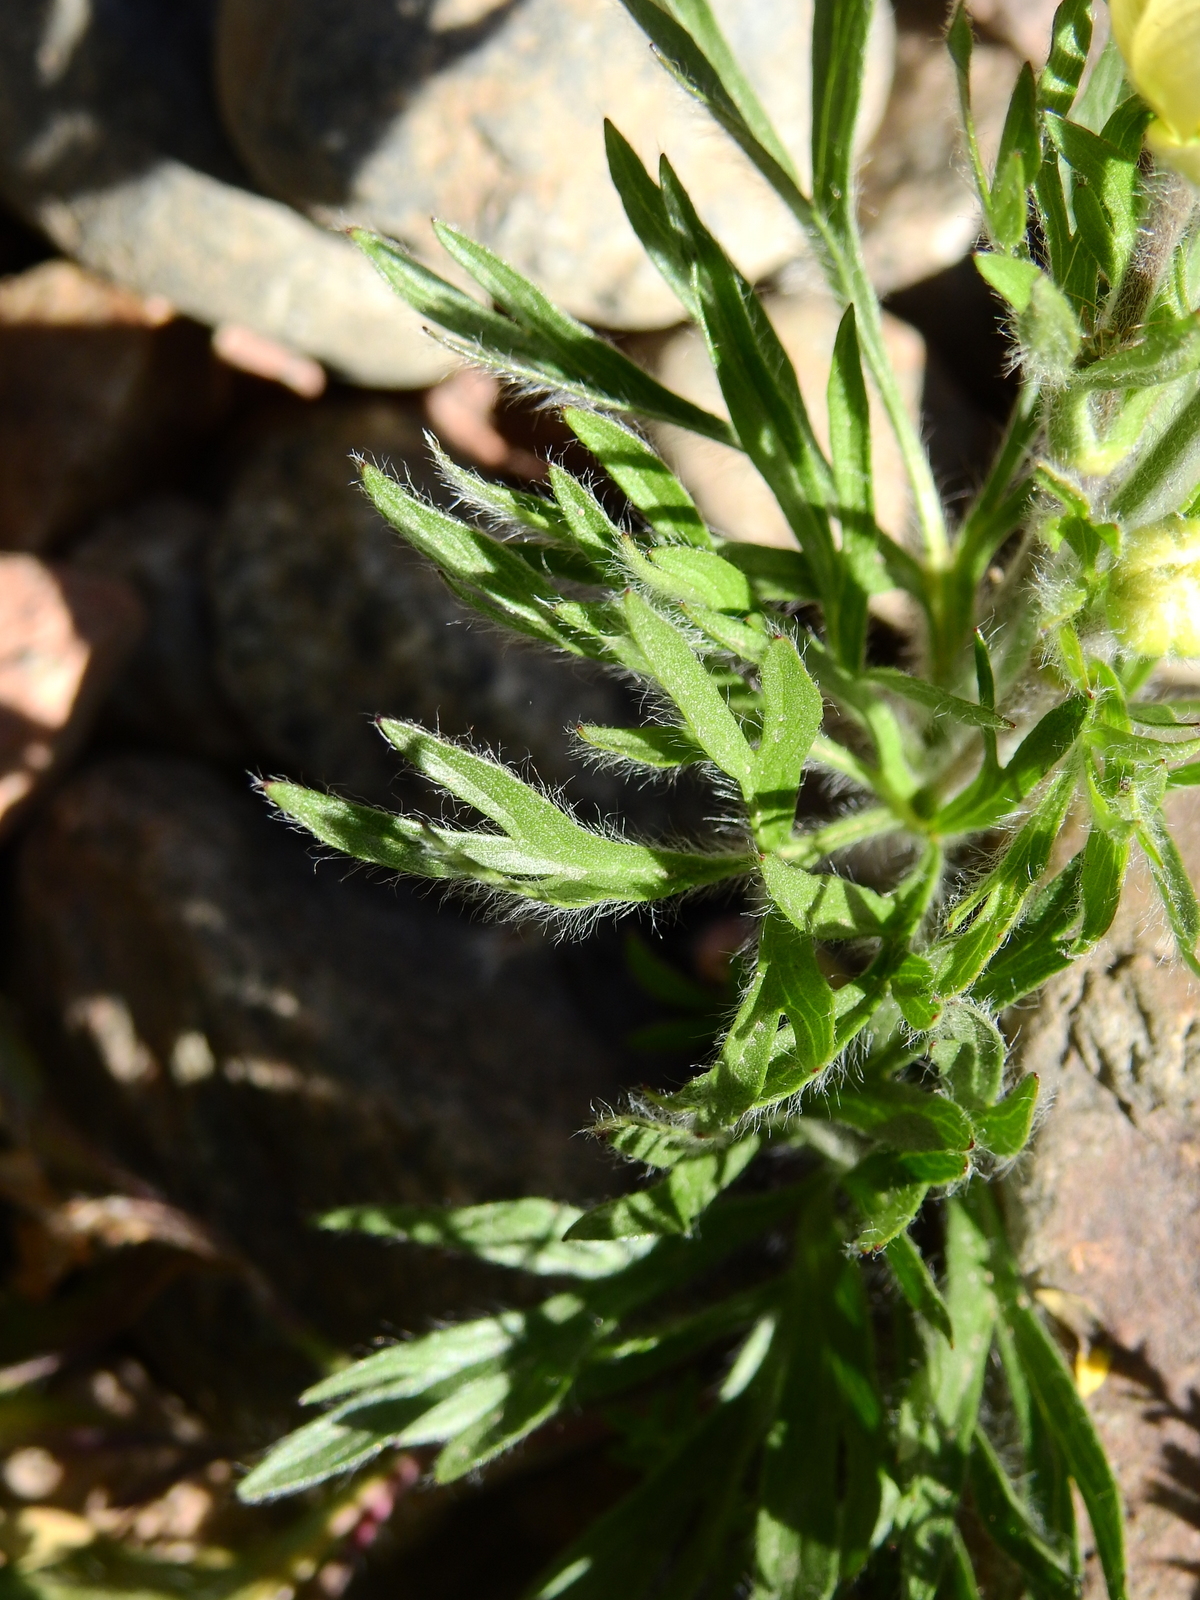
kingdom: Plantae
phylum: Tracheophyta
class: Magnoliopsida
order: Ranunculales
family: Ranunculaceae
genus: Anemone
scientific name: Anemone multifida
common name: Bird's-foot anemone
